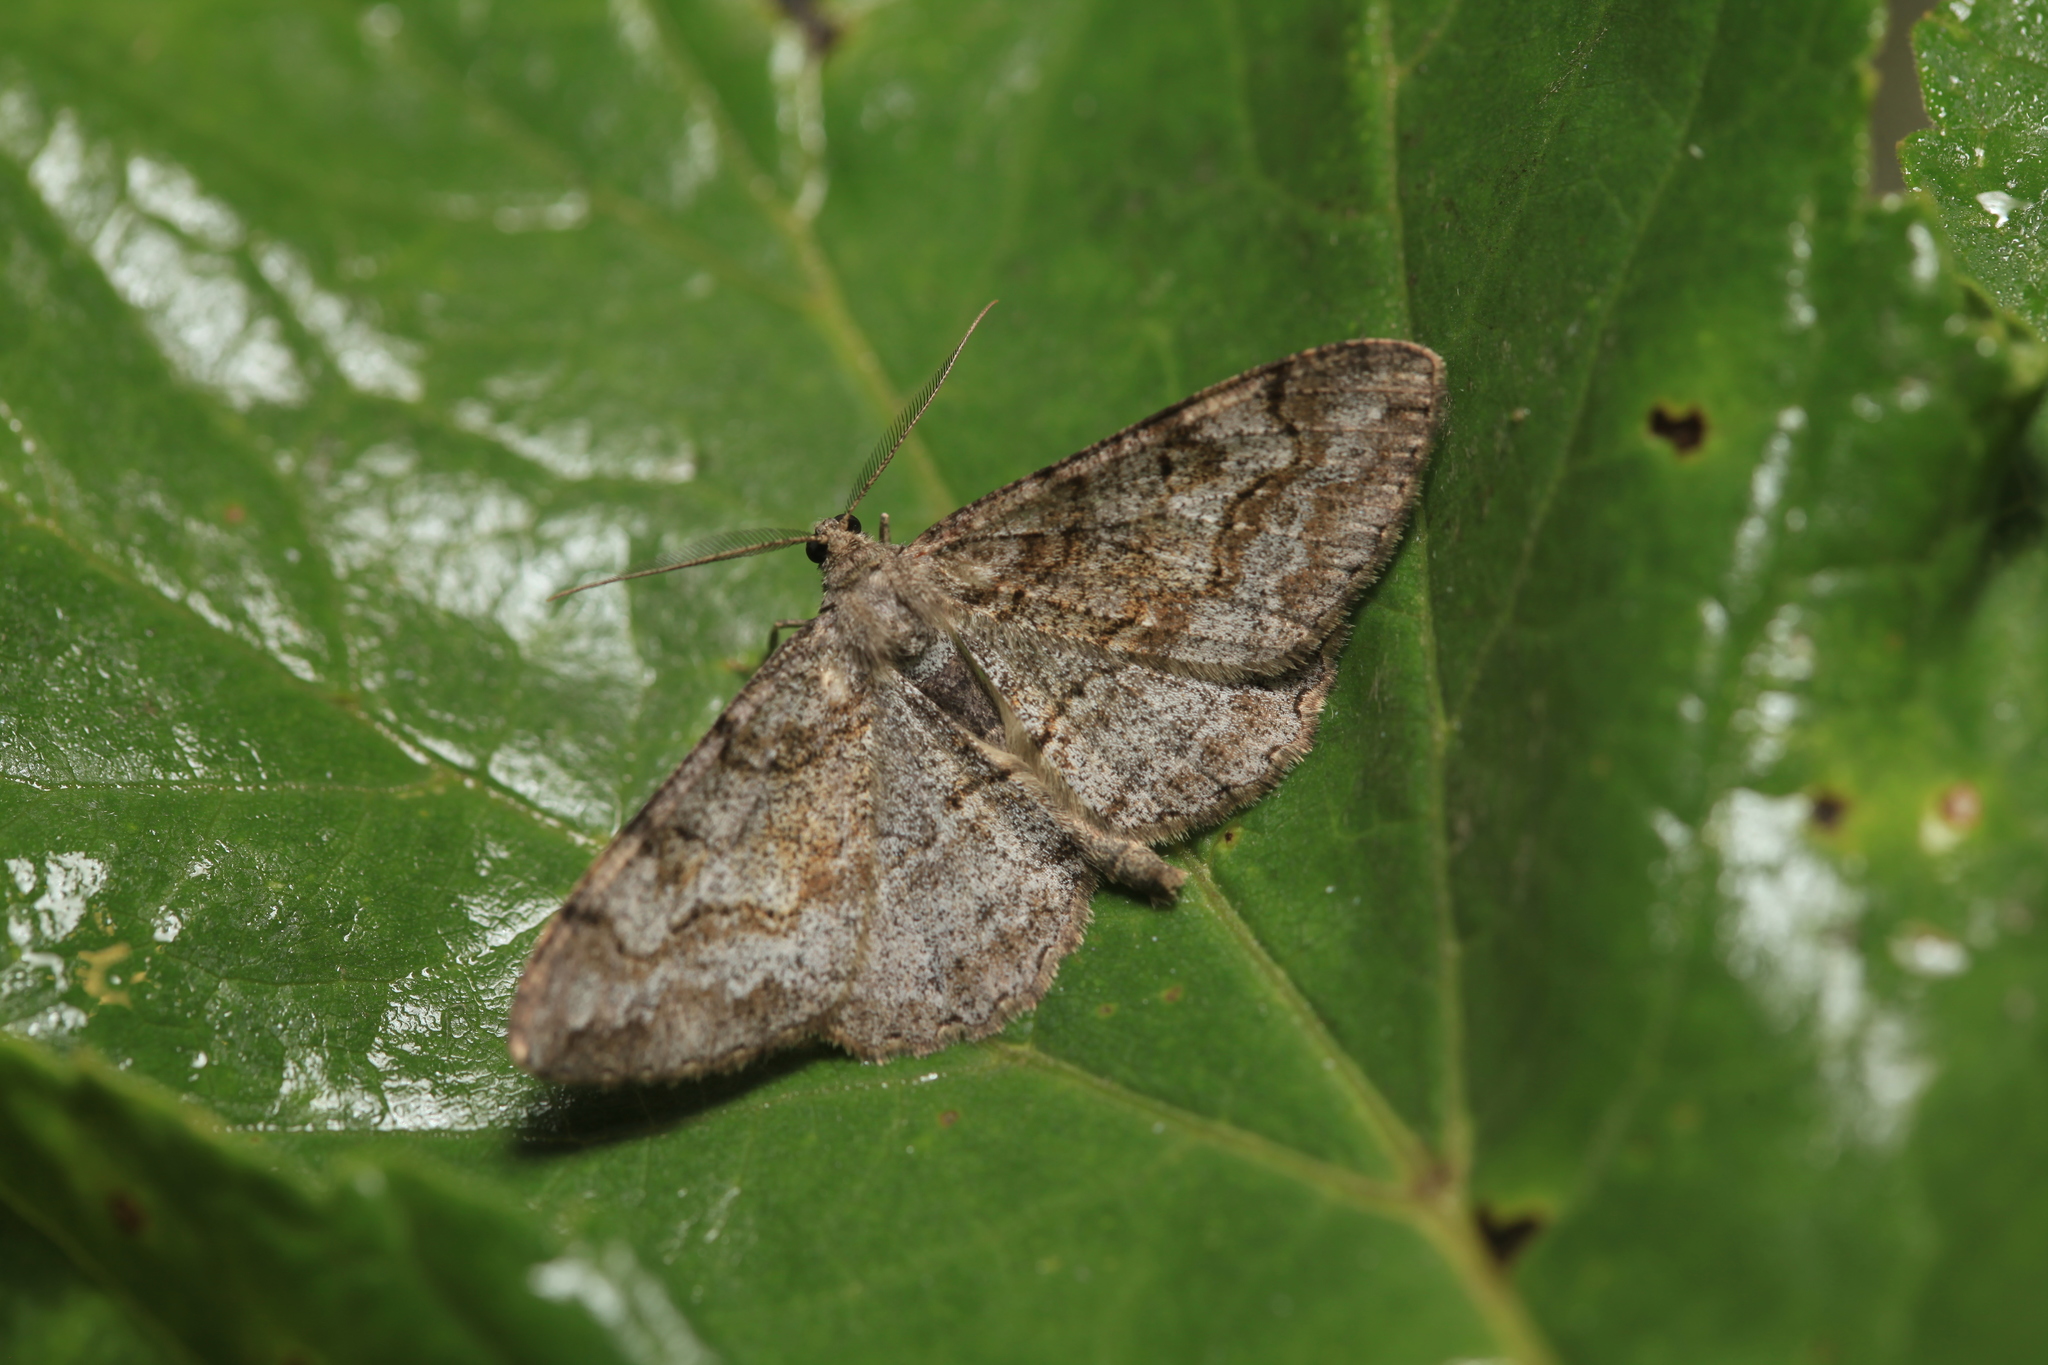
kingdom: Animalia
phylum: Arthropoda
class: Insecta
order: Lepidoptera
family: Geometridae
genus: Alcis
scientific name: Alcis repandata
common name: Mottled beauty
